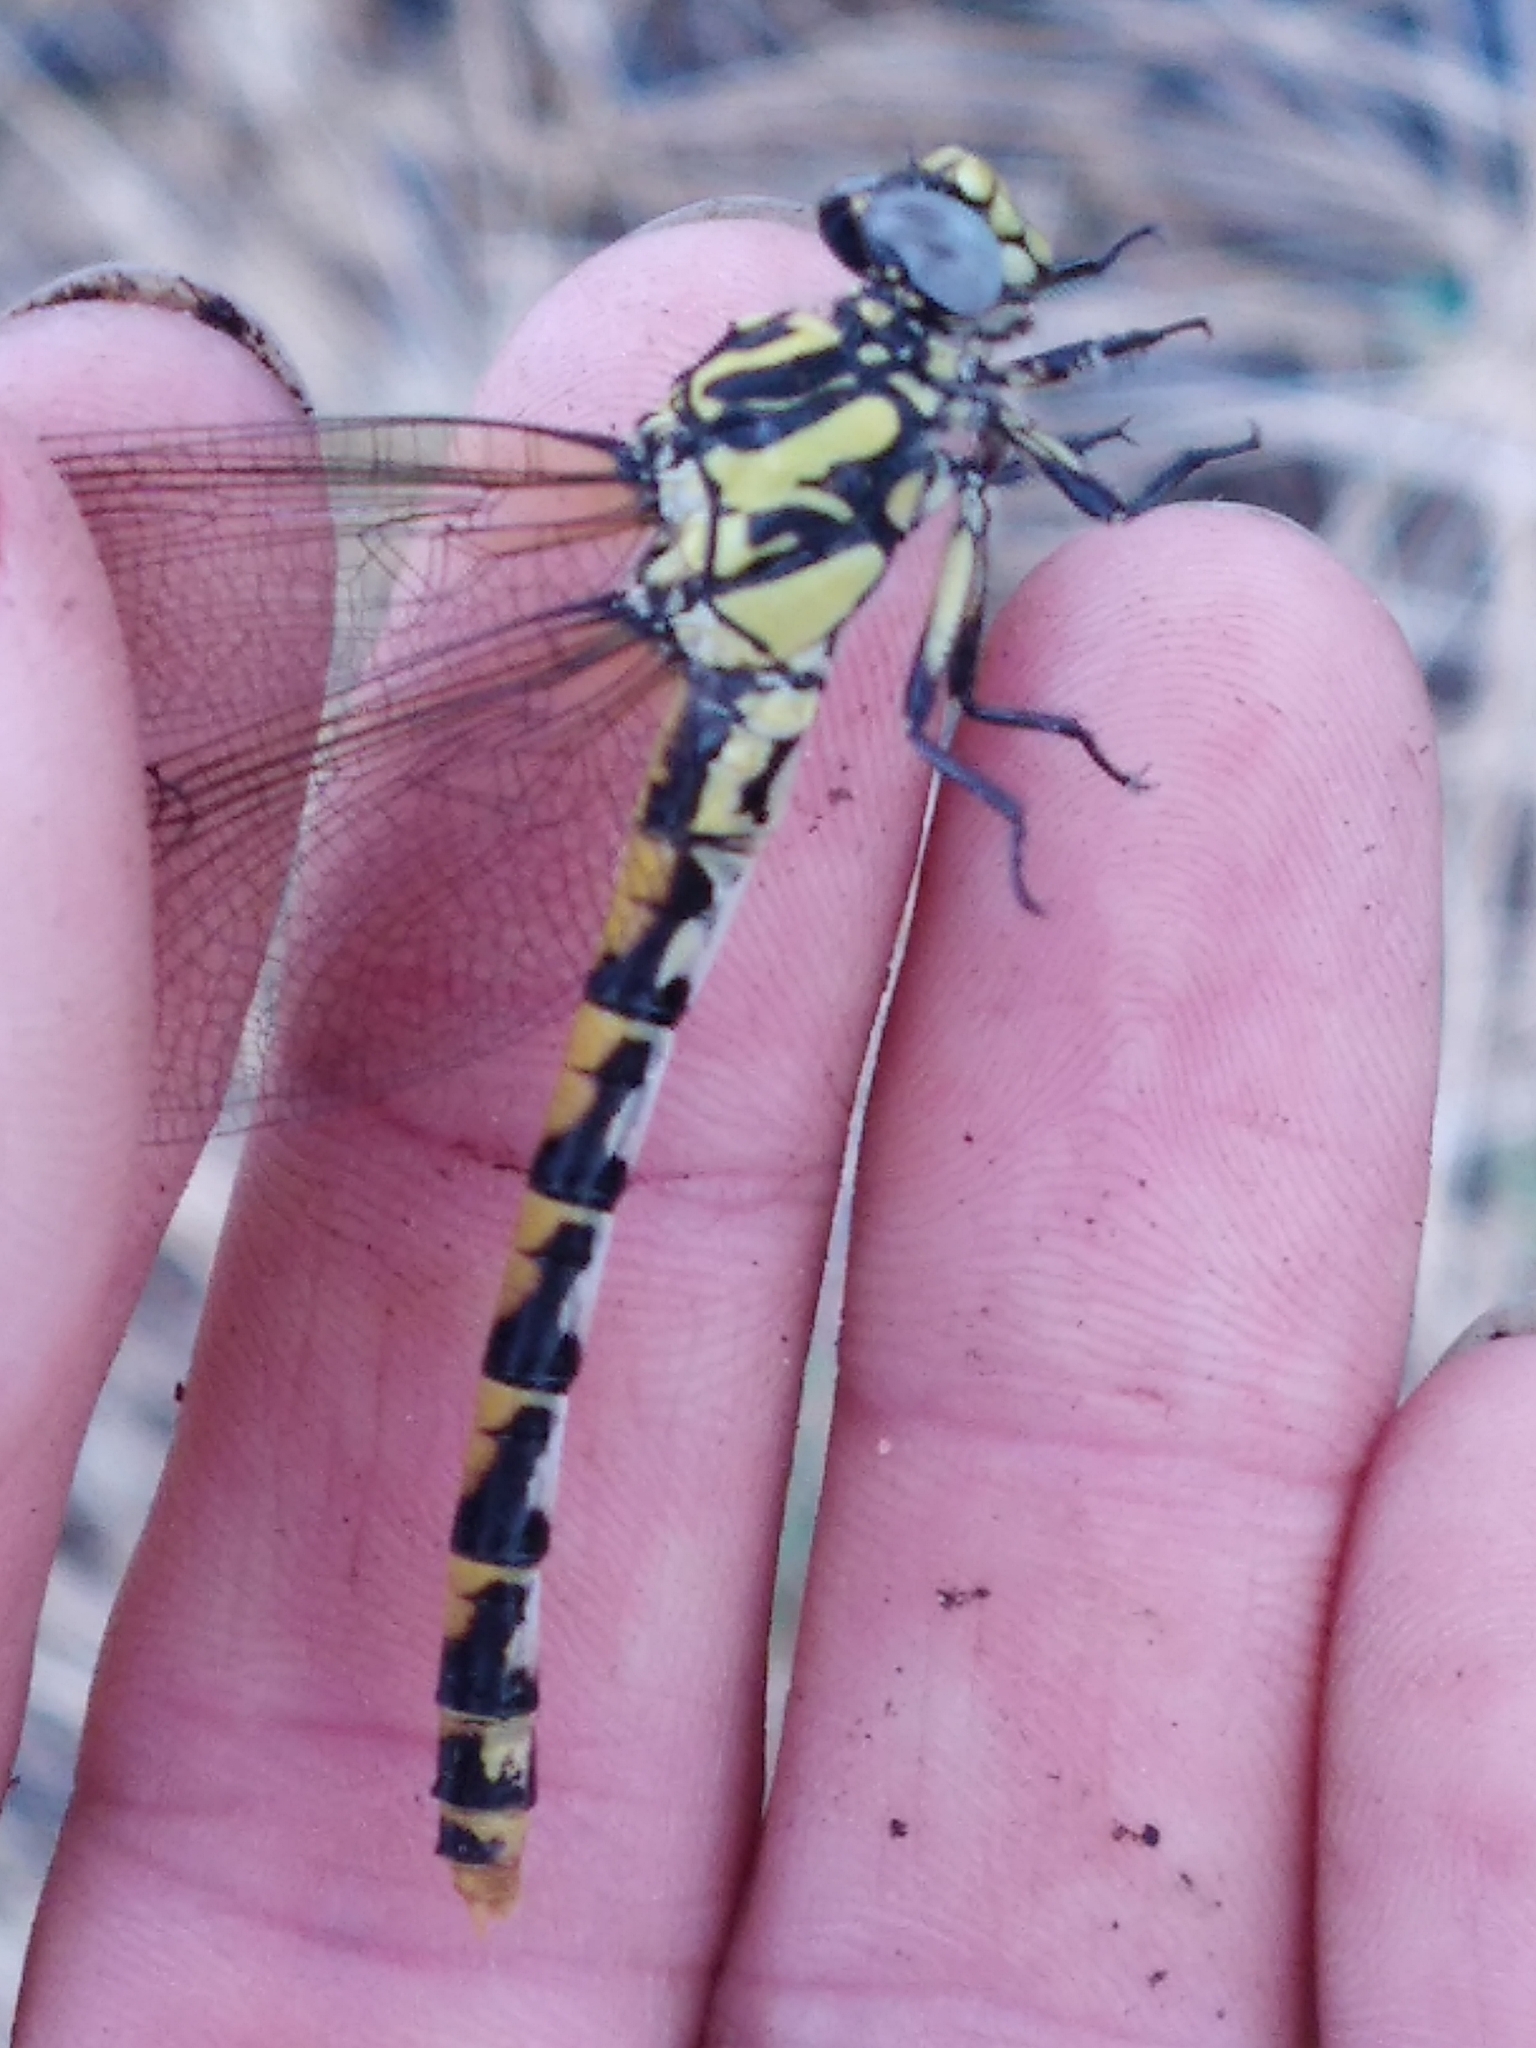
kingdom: Animalia
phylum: Arthropoda
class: Insecta
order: Odonata
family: Gomphidae
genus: Onychogomphus
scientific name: Onychogomphus uncatus
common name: Large pincertail
